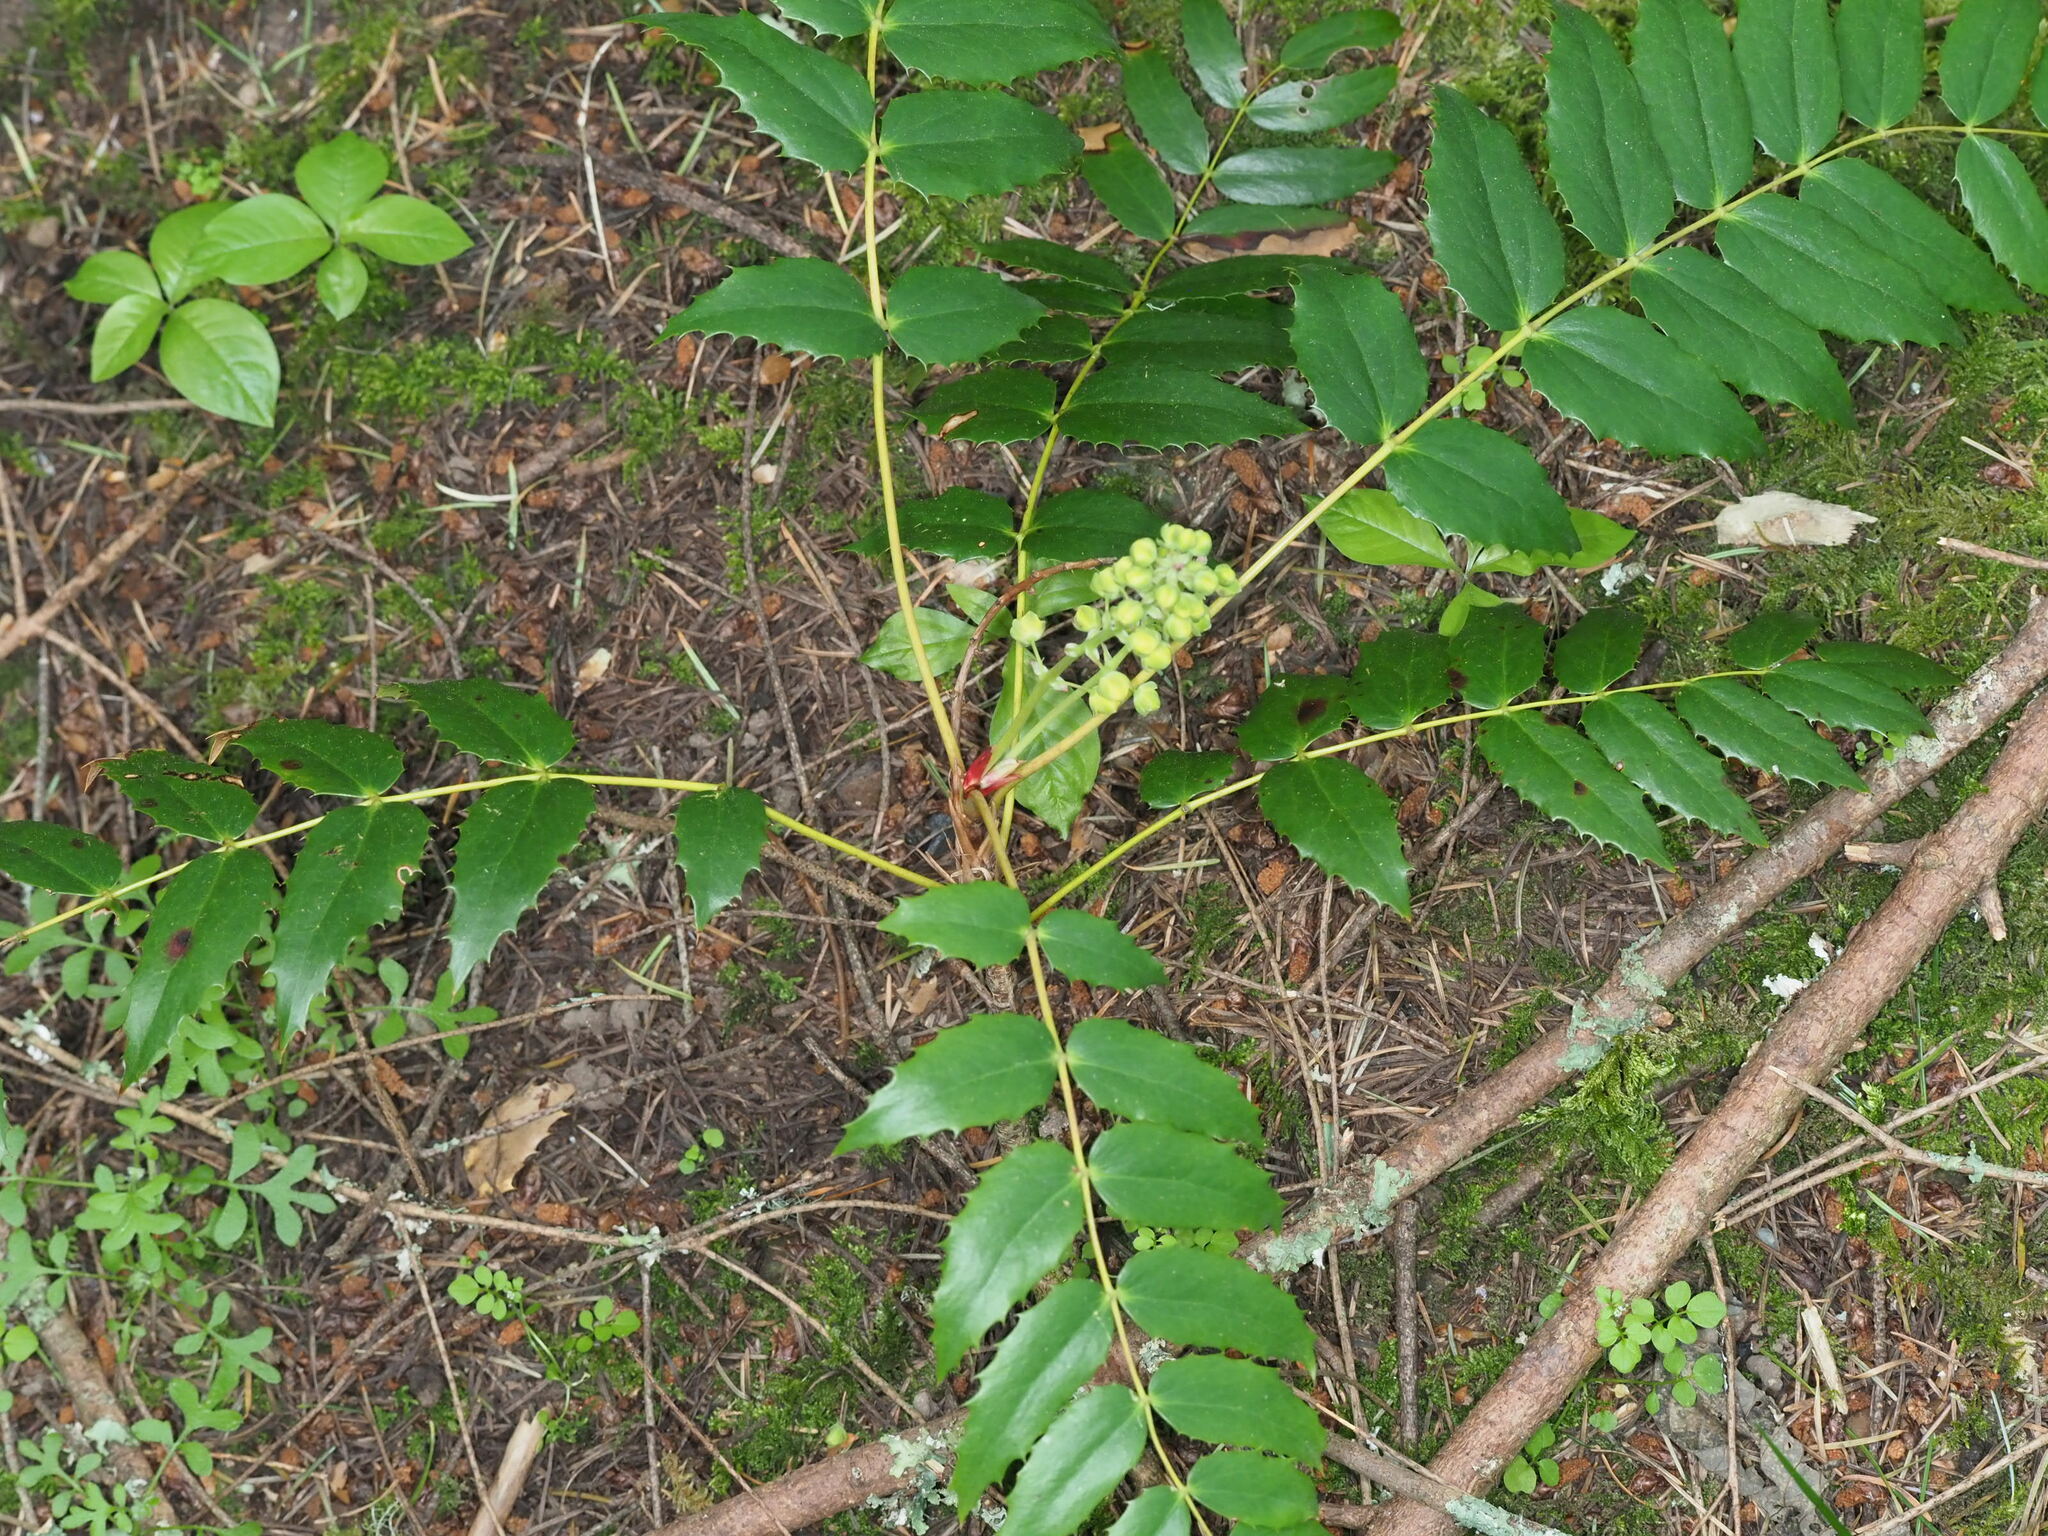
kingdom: Plantae
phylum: Tracheophyta
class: Magnoliopsida
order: Ranunculales
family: Berberidaceae
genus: Mahonia
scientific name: Mahonia nervosa
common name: Cascade oregon-grape
